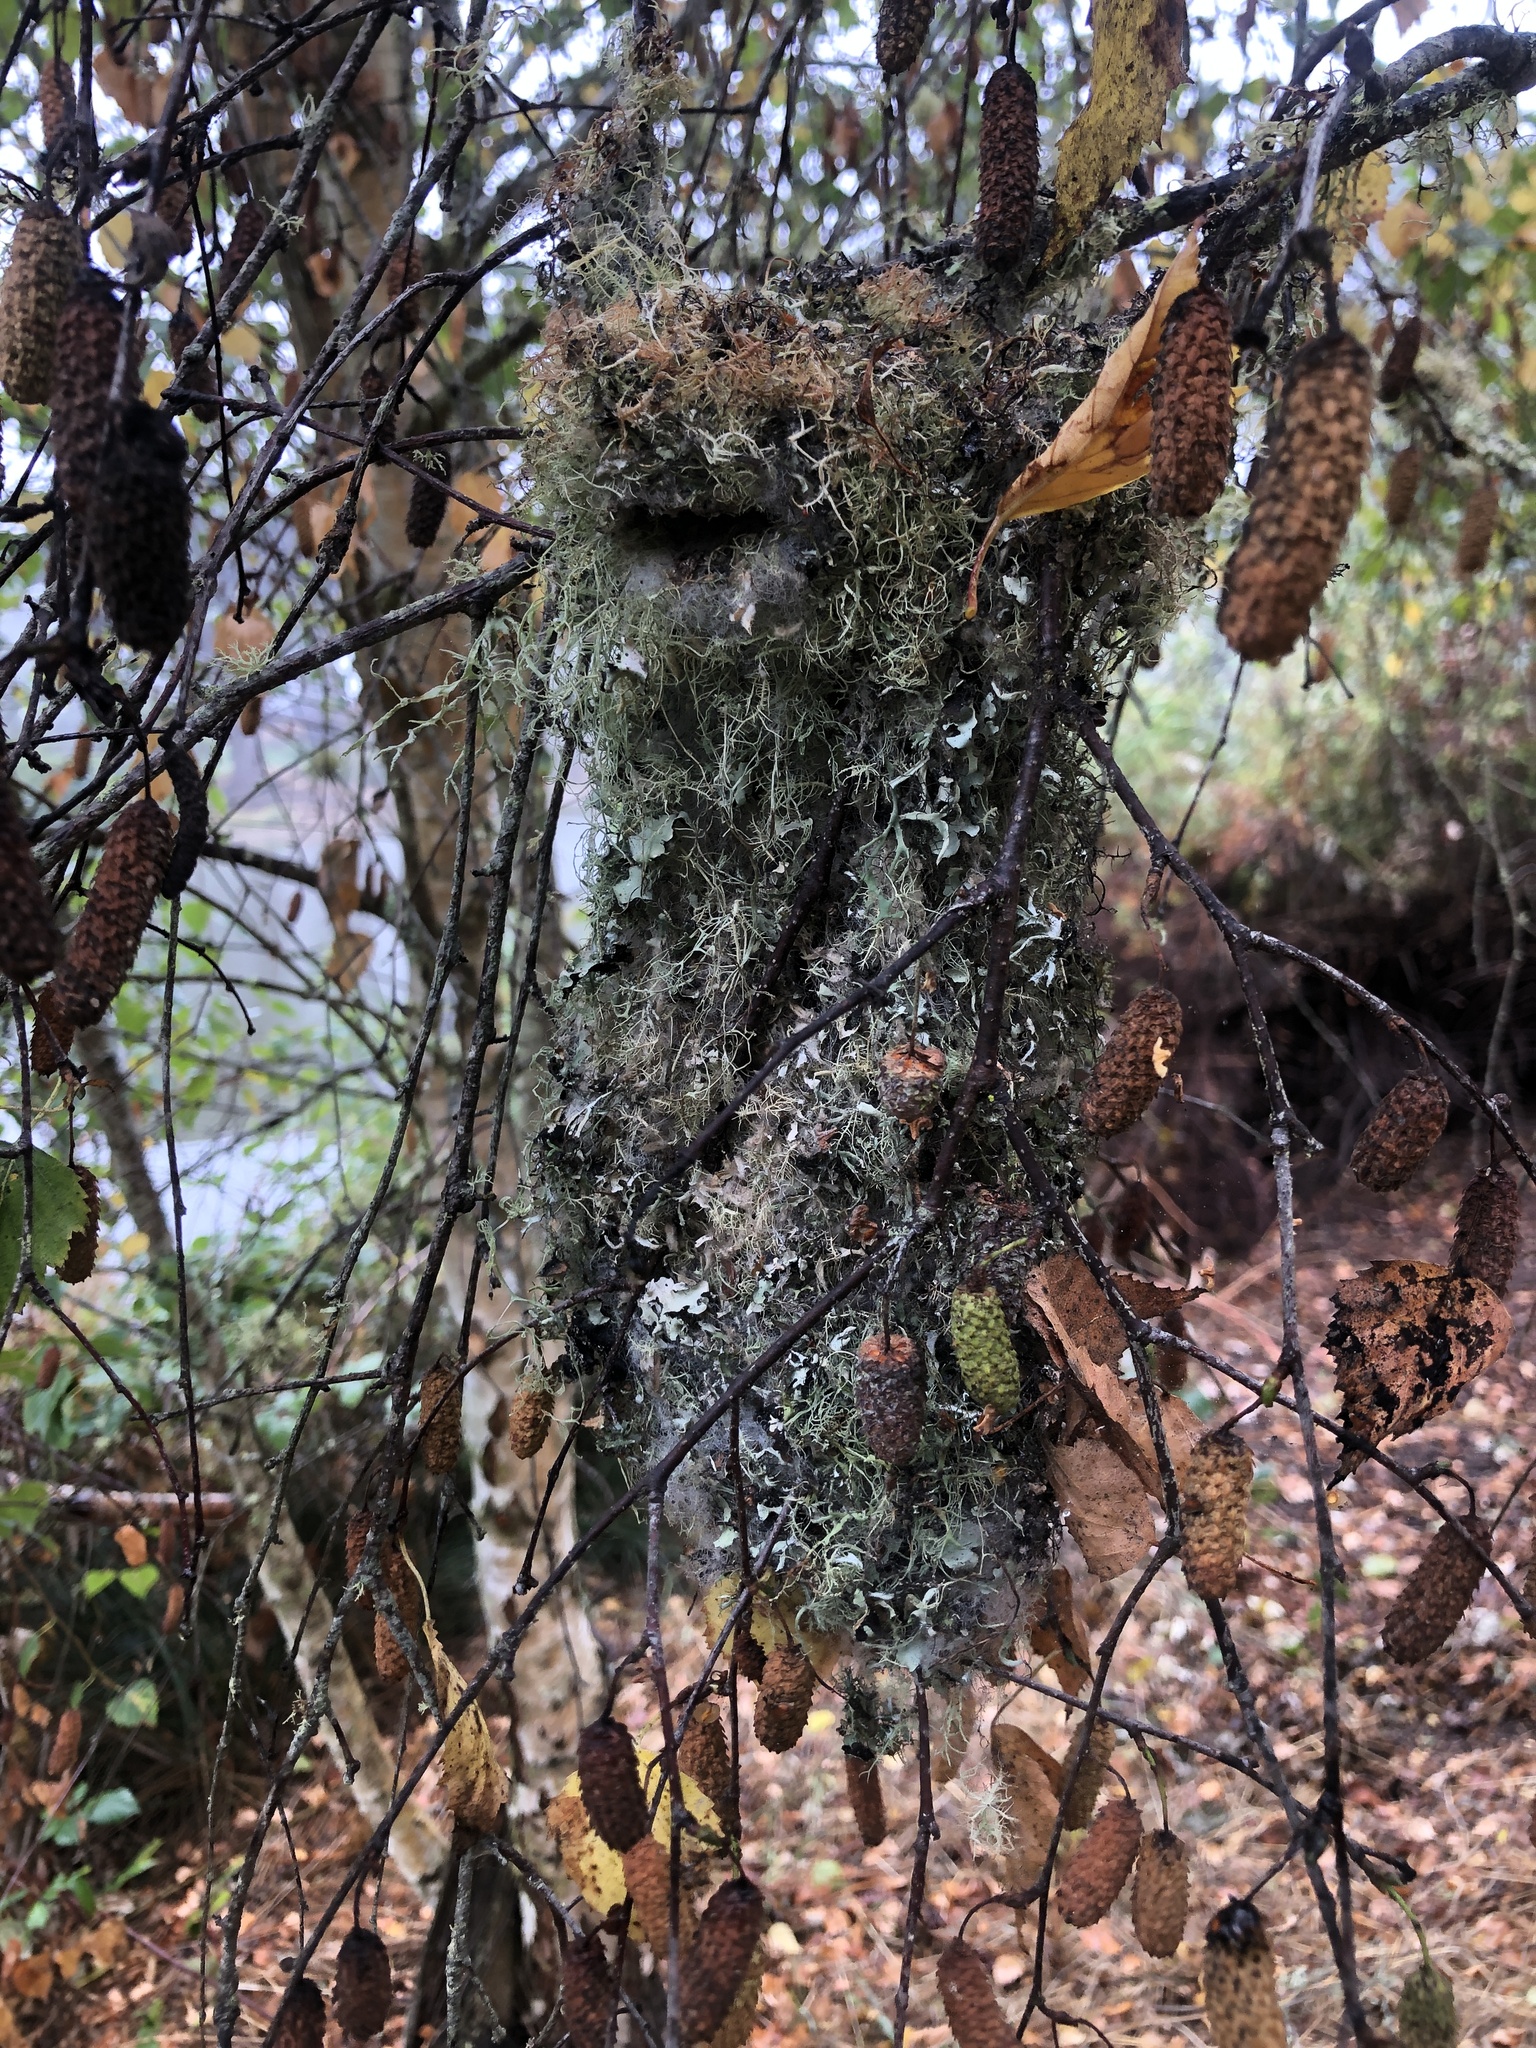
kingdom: Animalia
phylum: Chordata
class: Aves
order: Passeriformes
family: Aegithalidae
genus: Psaltriparus
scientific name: Psaltriparus minimus
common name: American bushtit
